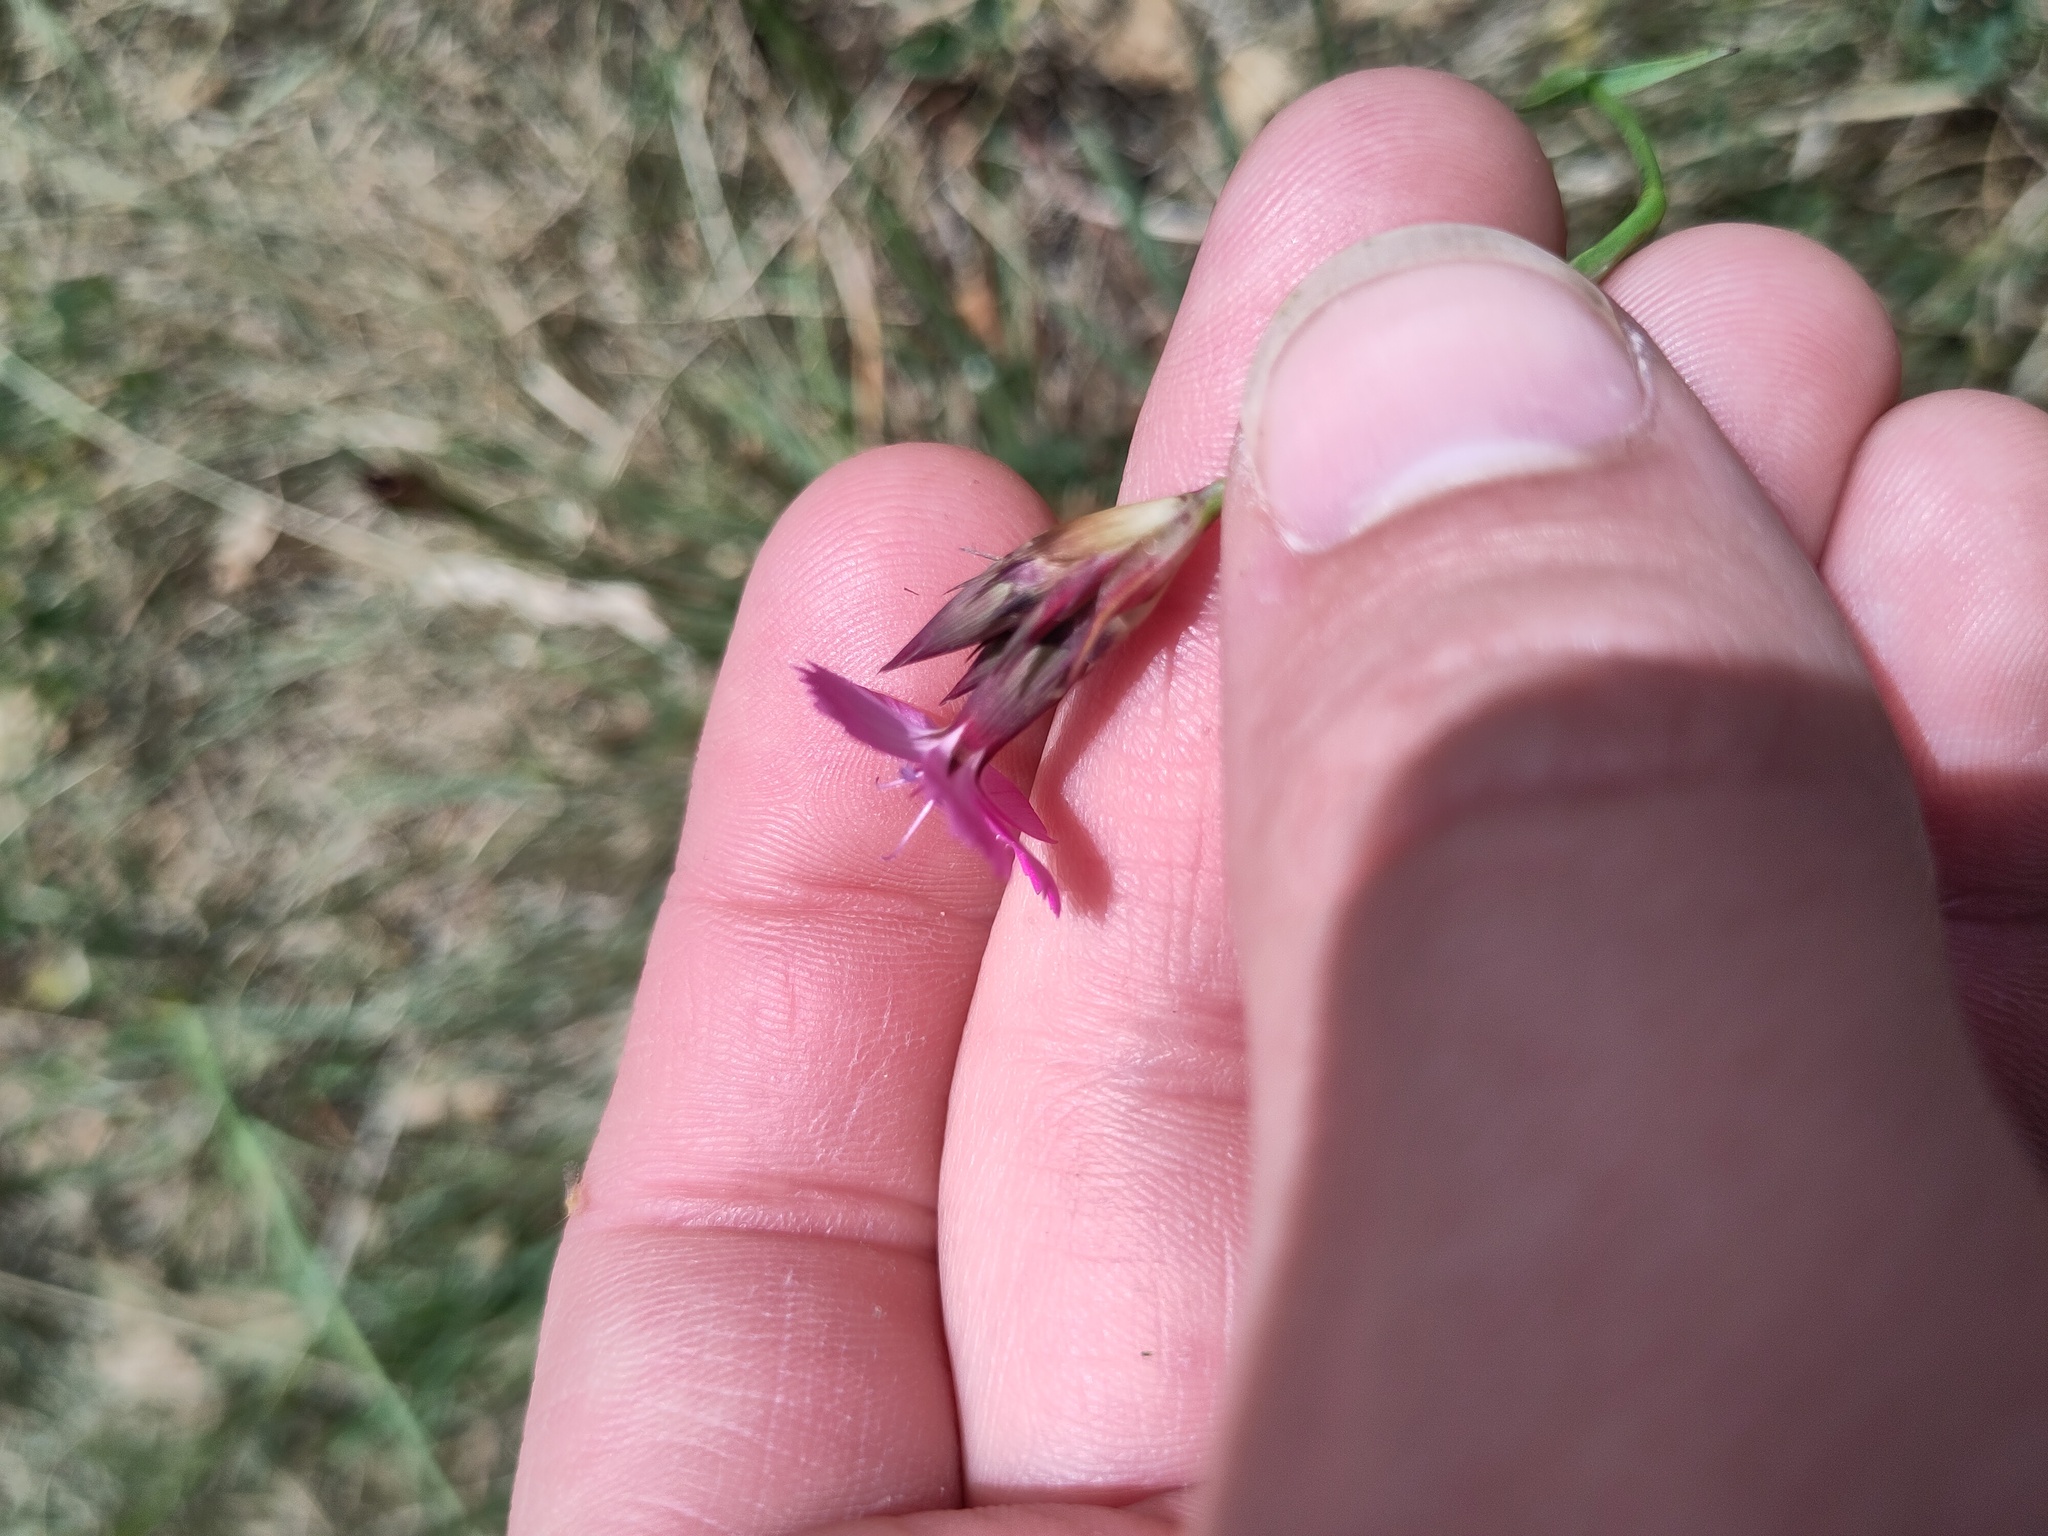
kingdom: Plantae
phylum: Tracheophyta
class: Magnoliopsida
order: Caryophyllales
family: Caryophyllaceae
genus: Dianthus
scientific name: Dianthus carthusianorum
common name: Carthusian pink
